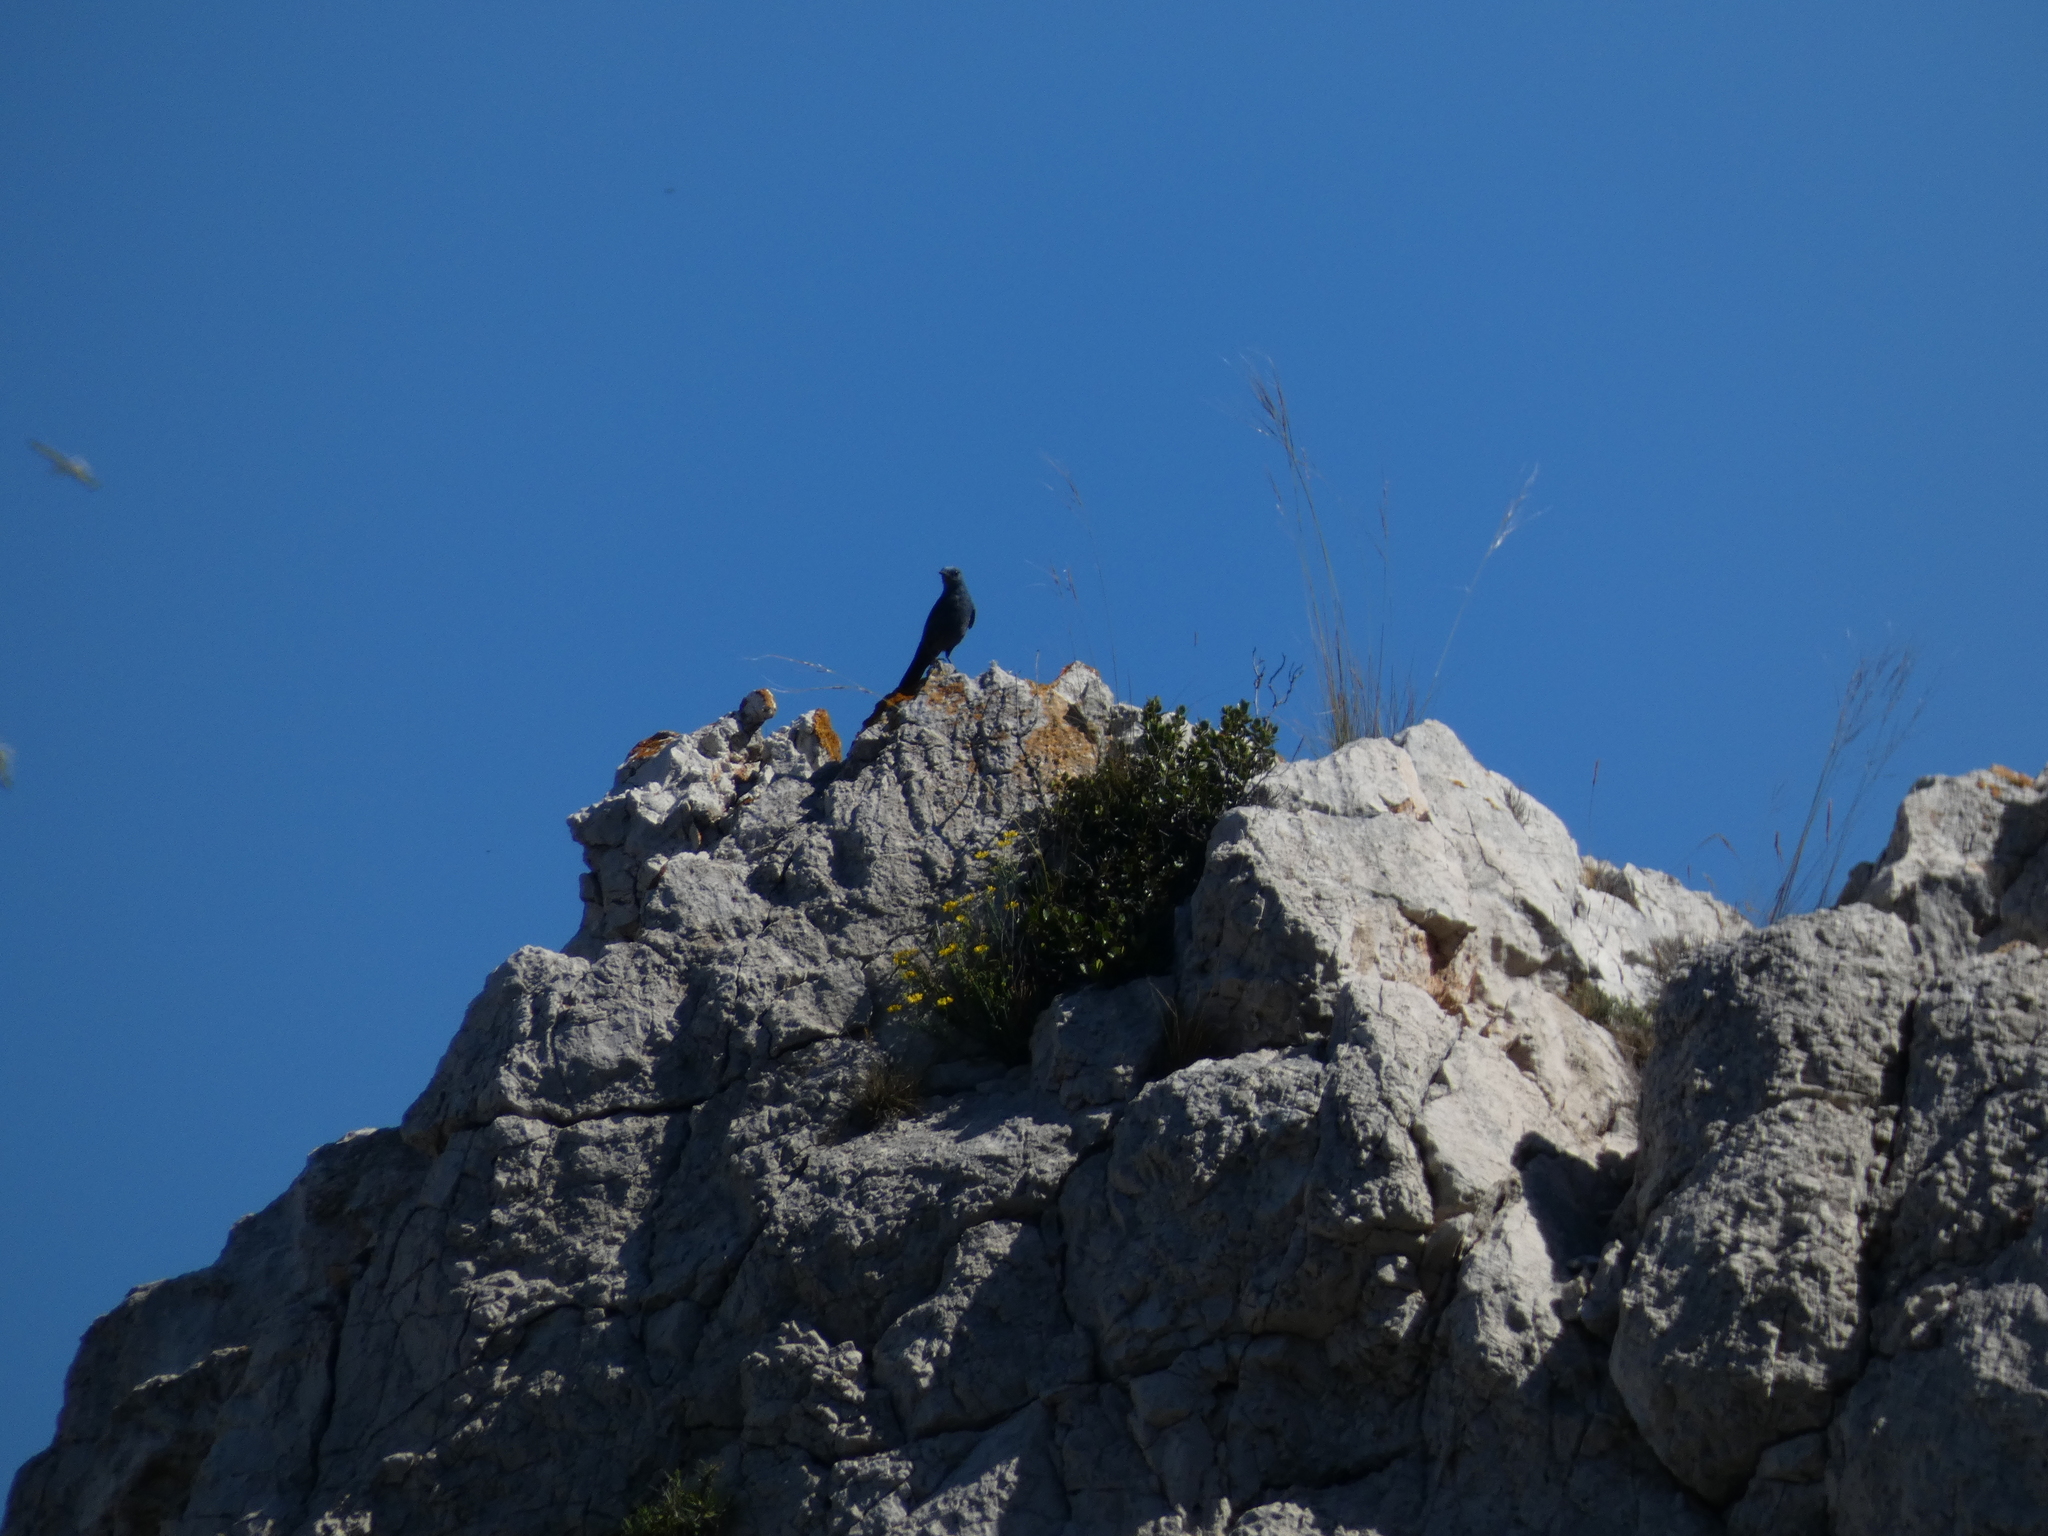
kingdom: Animalia
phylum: Chordata
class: Aves
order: Passeriformes
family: Muscicapidae
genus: Monticola
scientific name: Monticola solitarius
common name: Blue rock thrush
